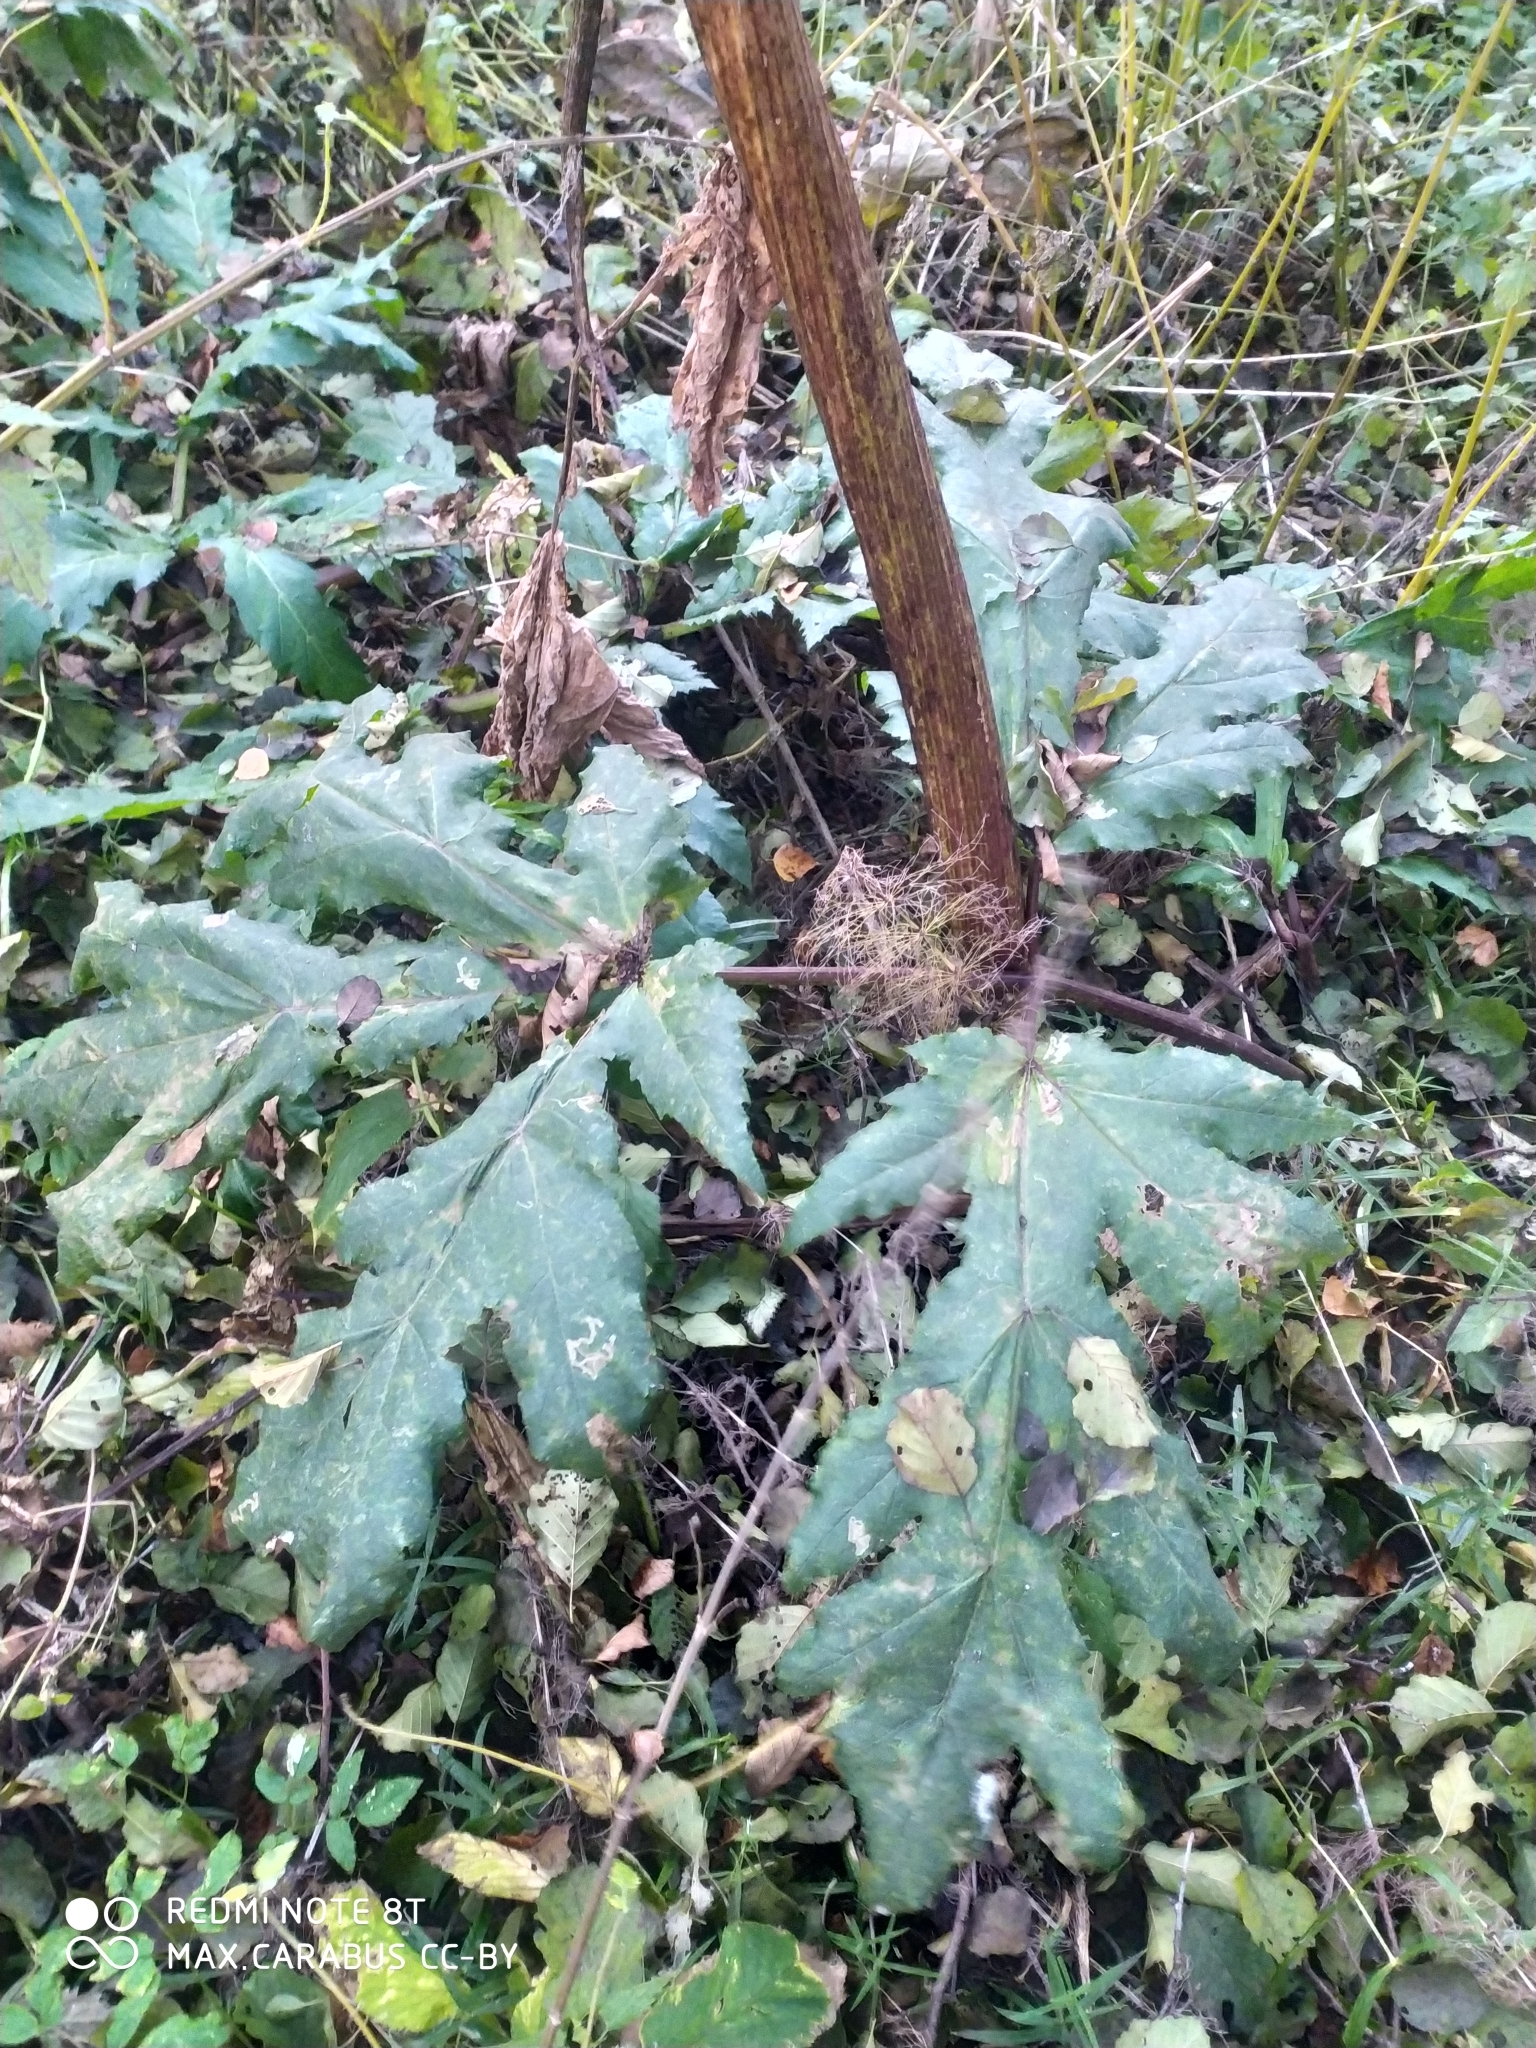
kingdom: Plantae
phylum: Tracheophyta
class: Magnoliopsida
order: Apiales
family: Apiaceae
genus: Heracleum
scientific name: Heracleum sosnowskyi
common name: Sosnowsky's hogweed
